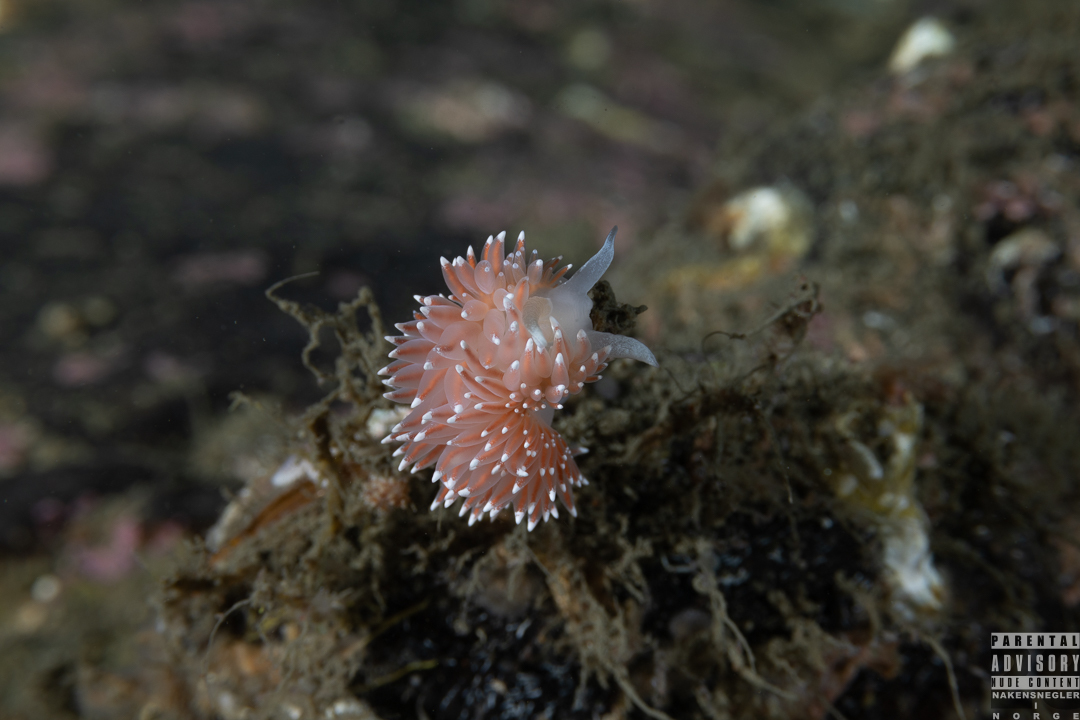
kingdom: Animalia
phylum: Mollusca
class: Gastropoda
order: Nudibranchia
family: Coryphellidae
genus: Coryphella
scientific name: Coryphella nobilis
